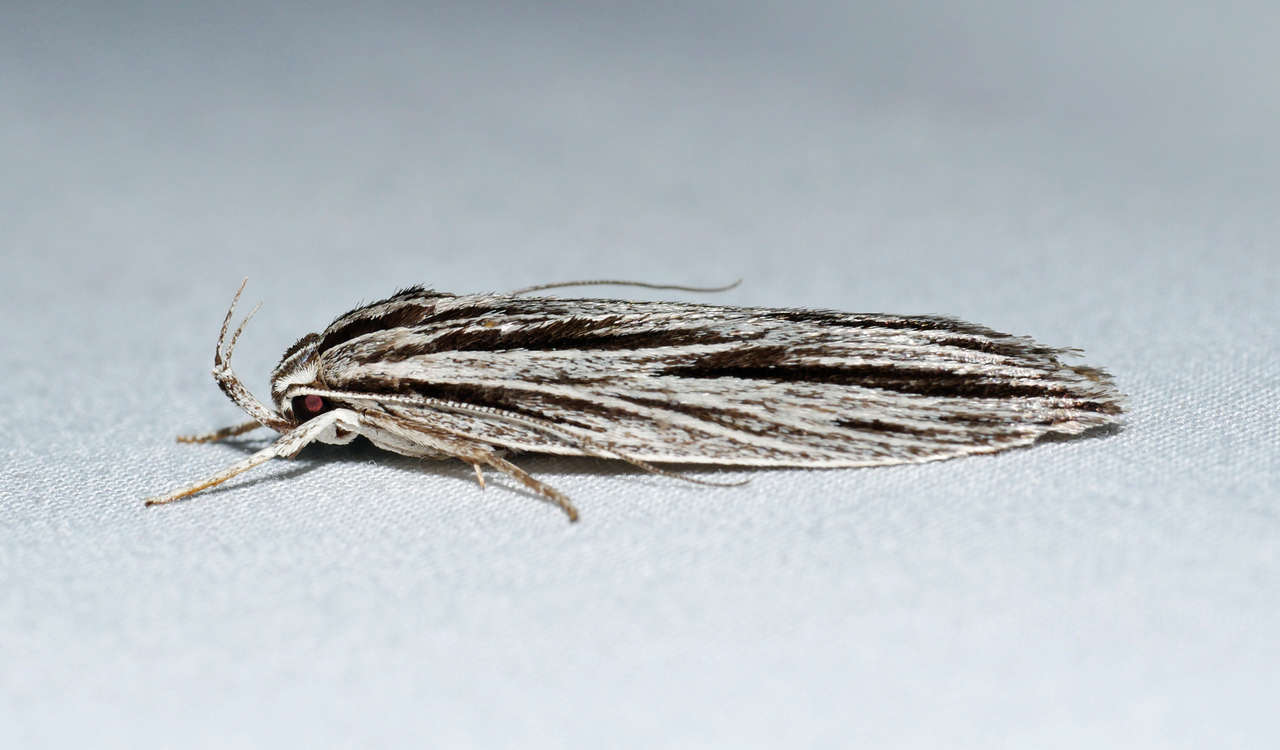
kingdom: Animalia
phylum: Arthropoda
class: Insecta
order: Lepidoptera
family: Xyloryctidae
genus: Leistarcha
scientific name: Leistarcha scitissimella
